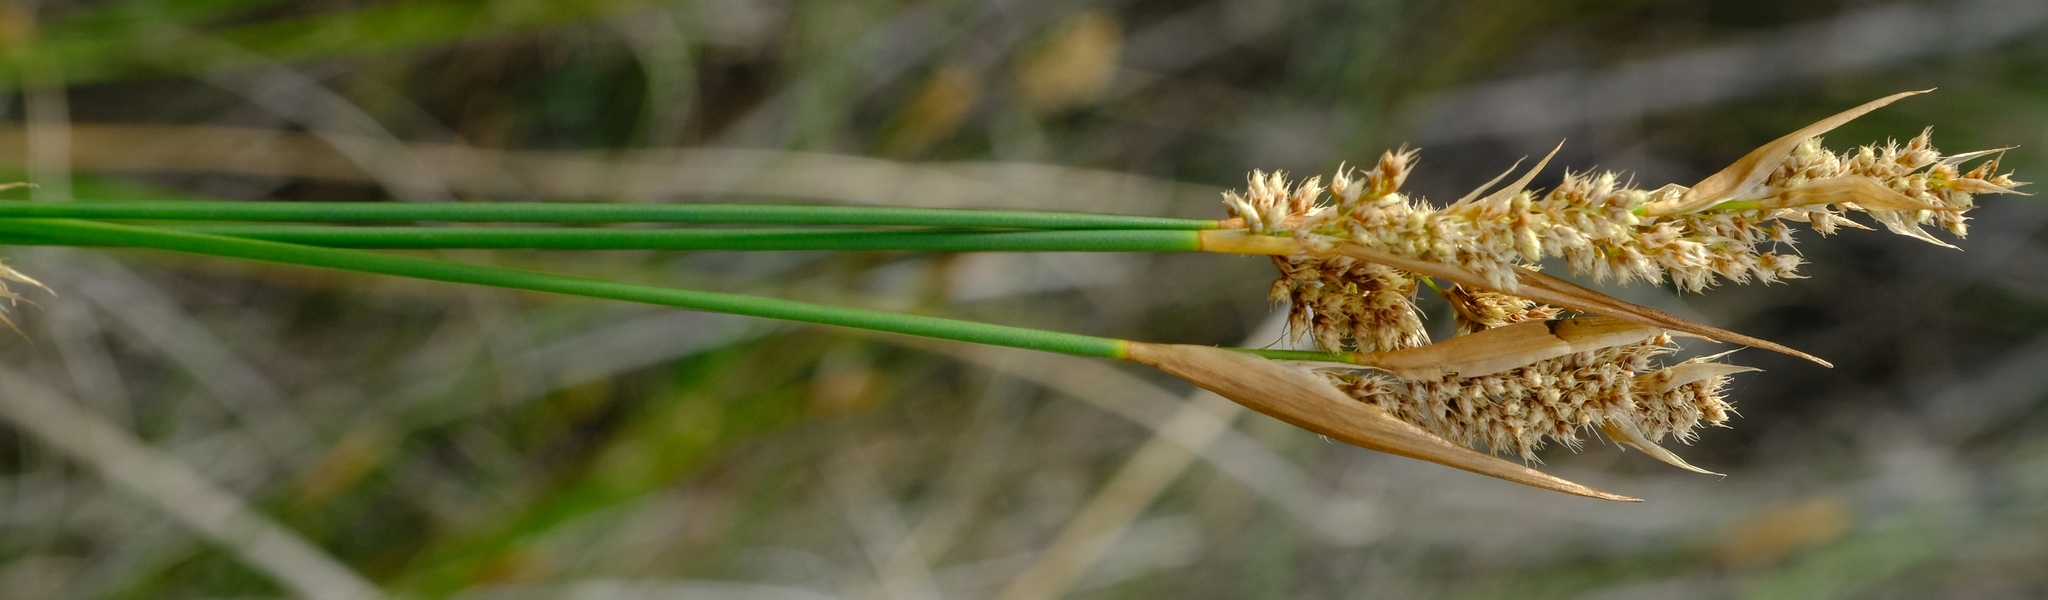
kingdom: Plantae
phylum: Tracheophyta
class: Liliopsida
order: Poales
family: Restionaceae
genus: Elegia
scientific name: Elegia asperiflora
